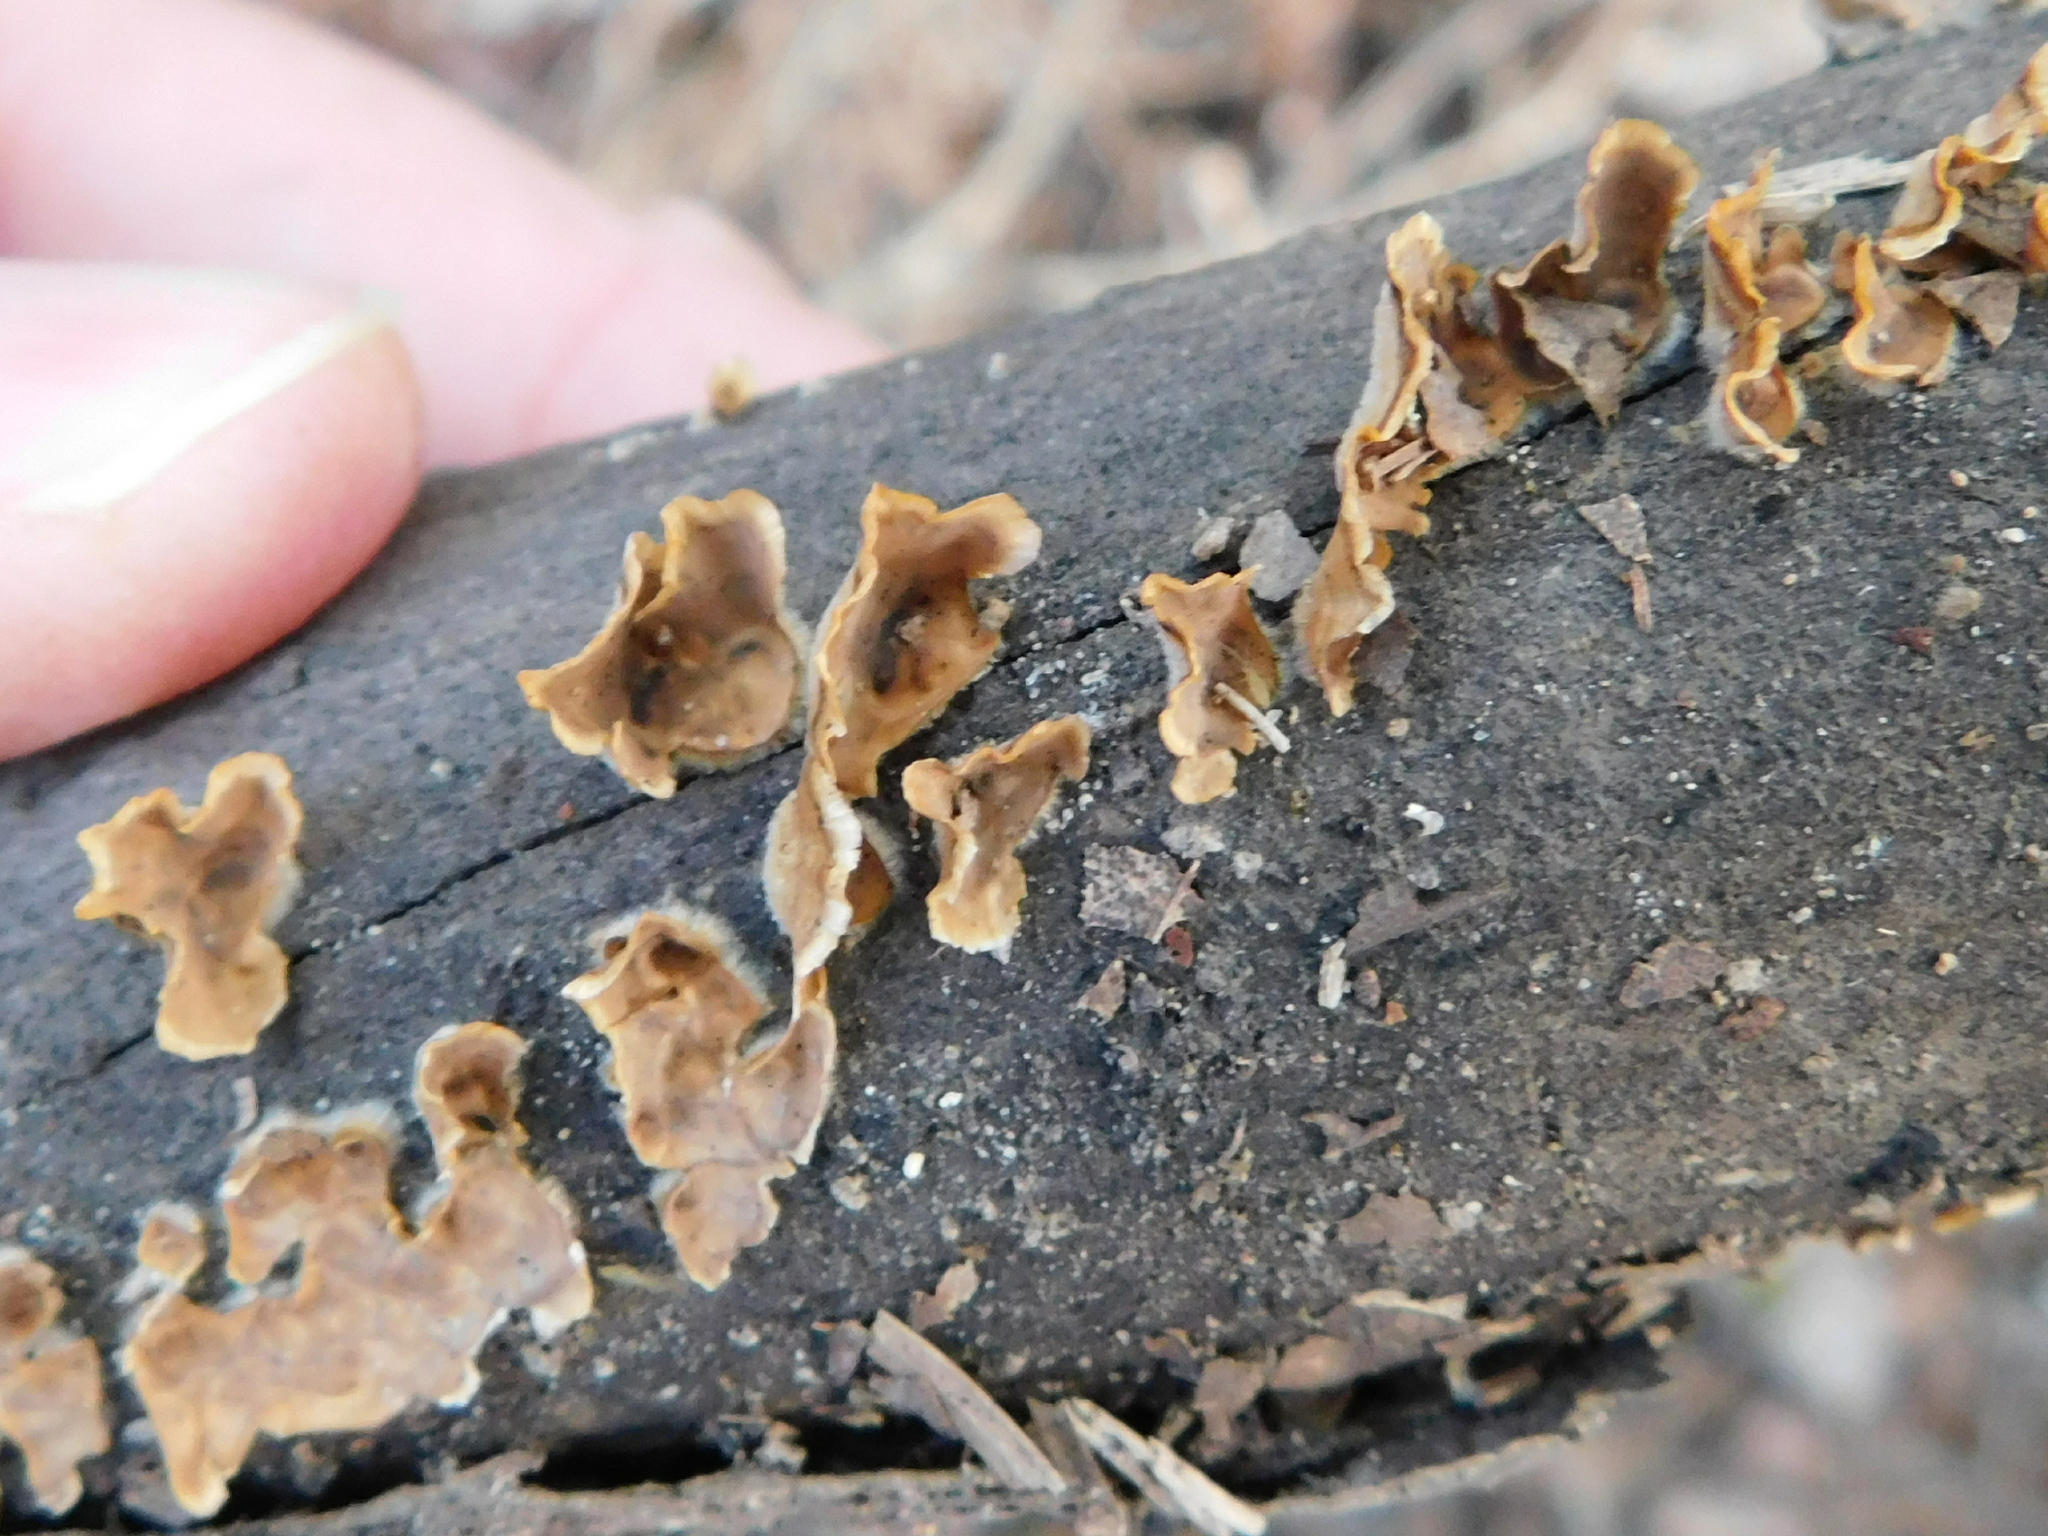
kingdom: Fungi
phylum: Basidiomycota
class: Agaricomycetes
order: Russulales
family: Stereaceae
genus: Stereum
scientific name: Stereum complicatum
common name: Crowded parchment
